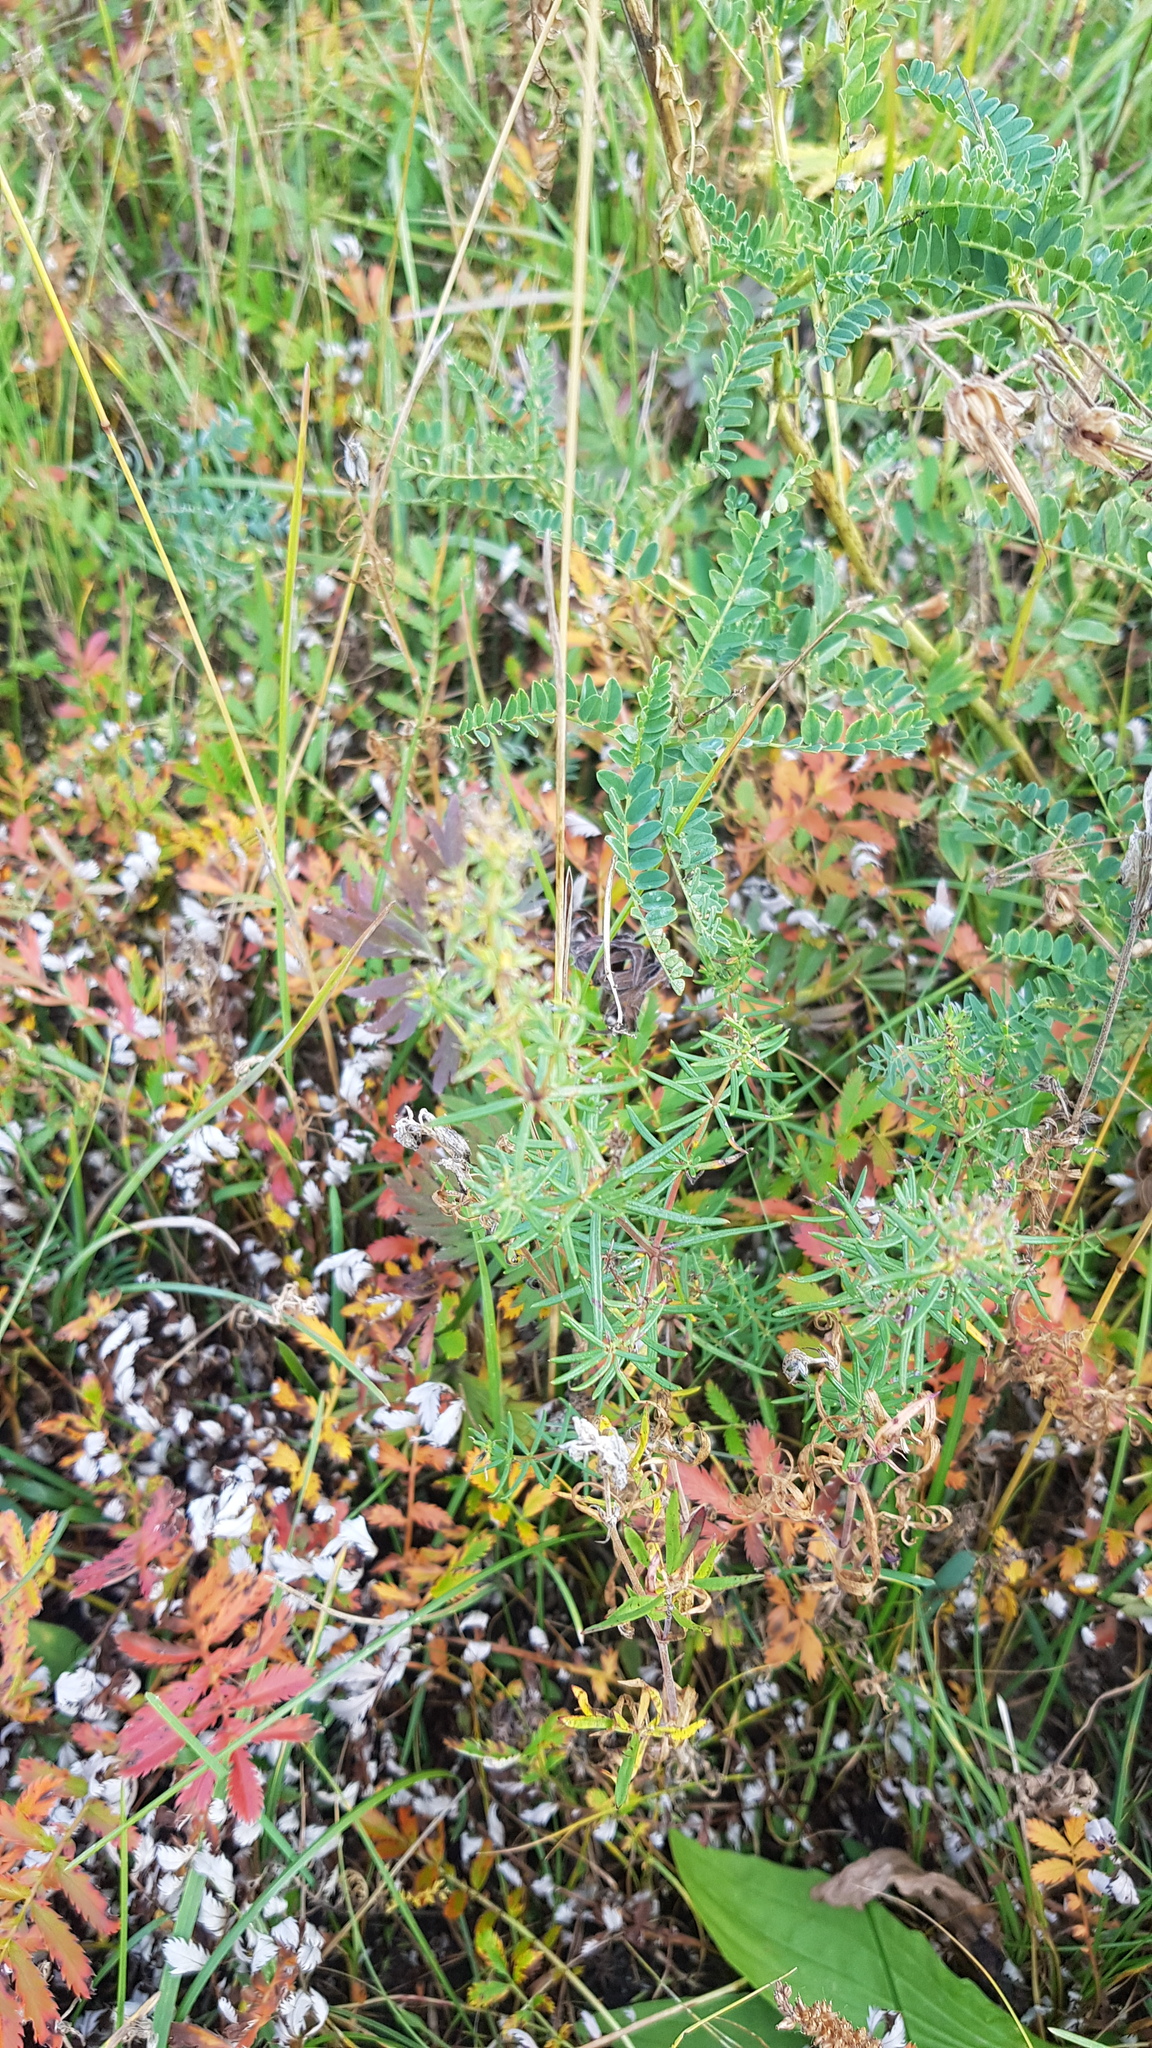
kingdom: Plantae
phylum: Tracheophyta
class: Magnoliopsida
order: Gentianales
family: Rubiaceae
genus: Galium
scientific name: Galium verum
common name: Lady's bedstraw
